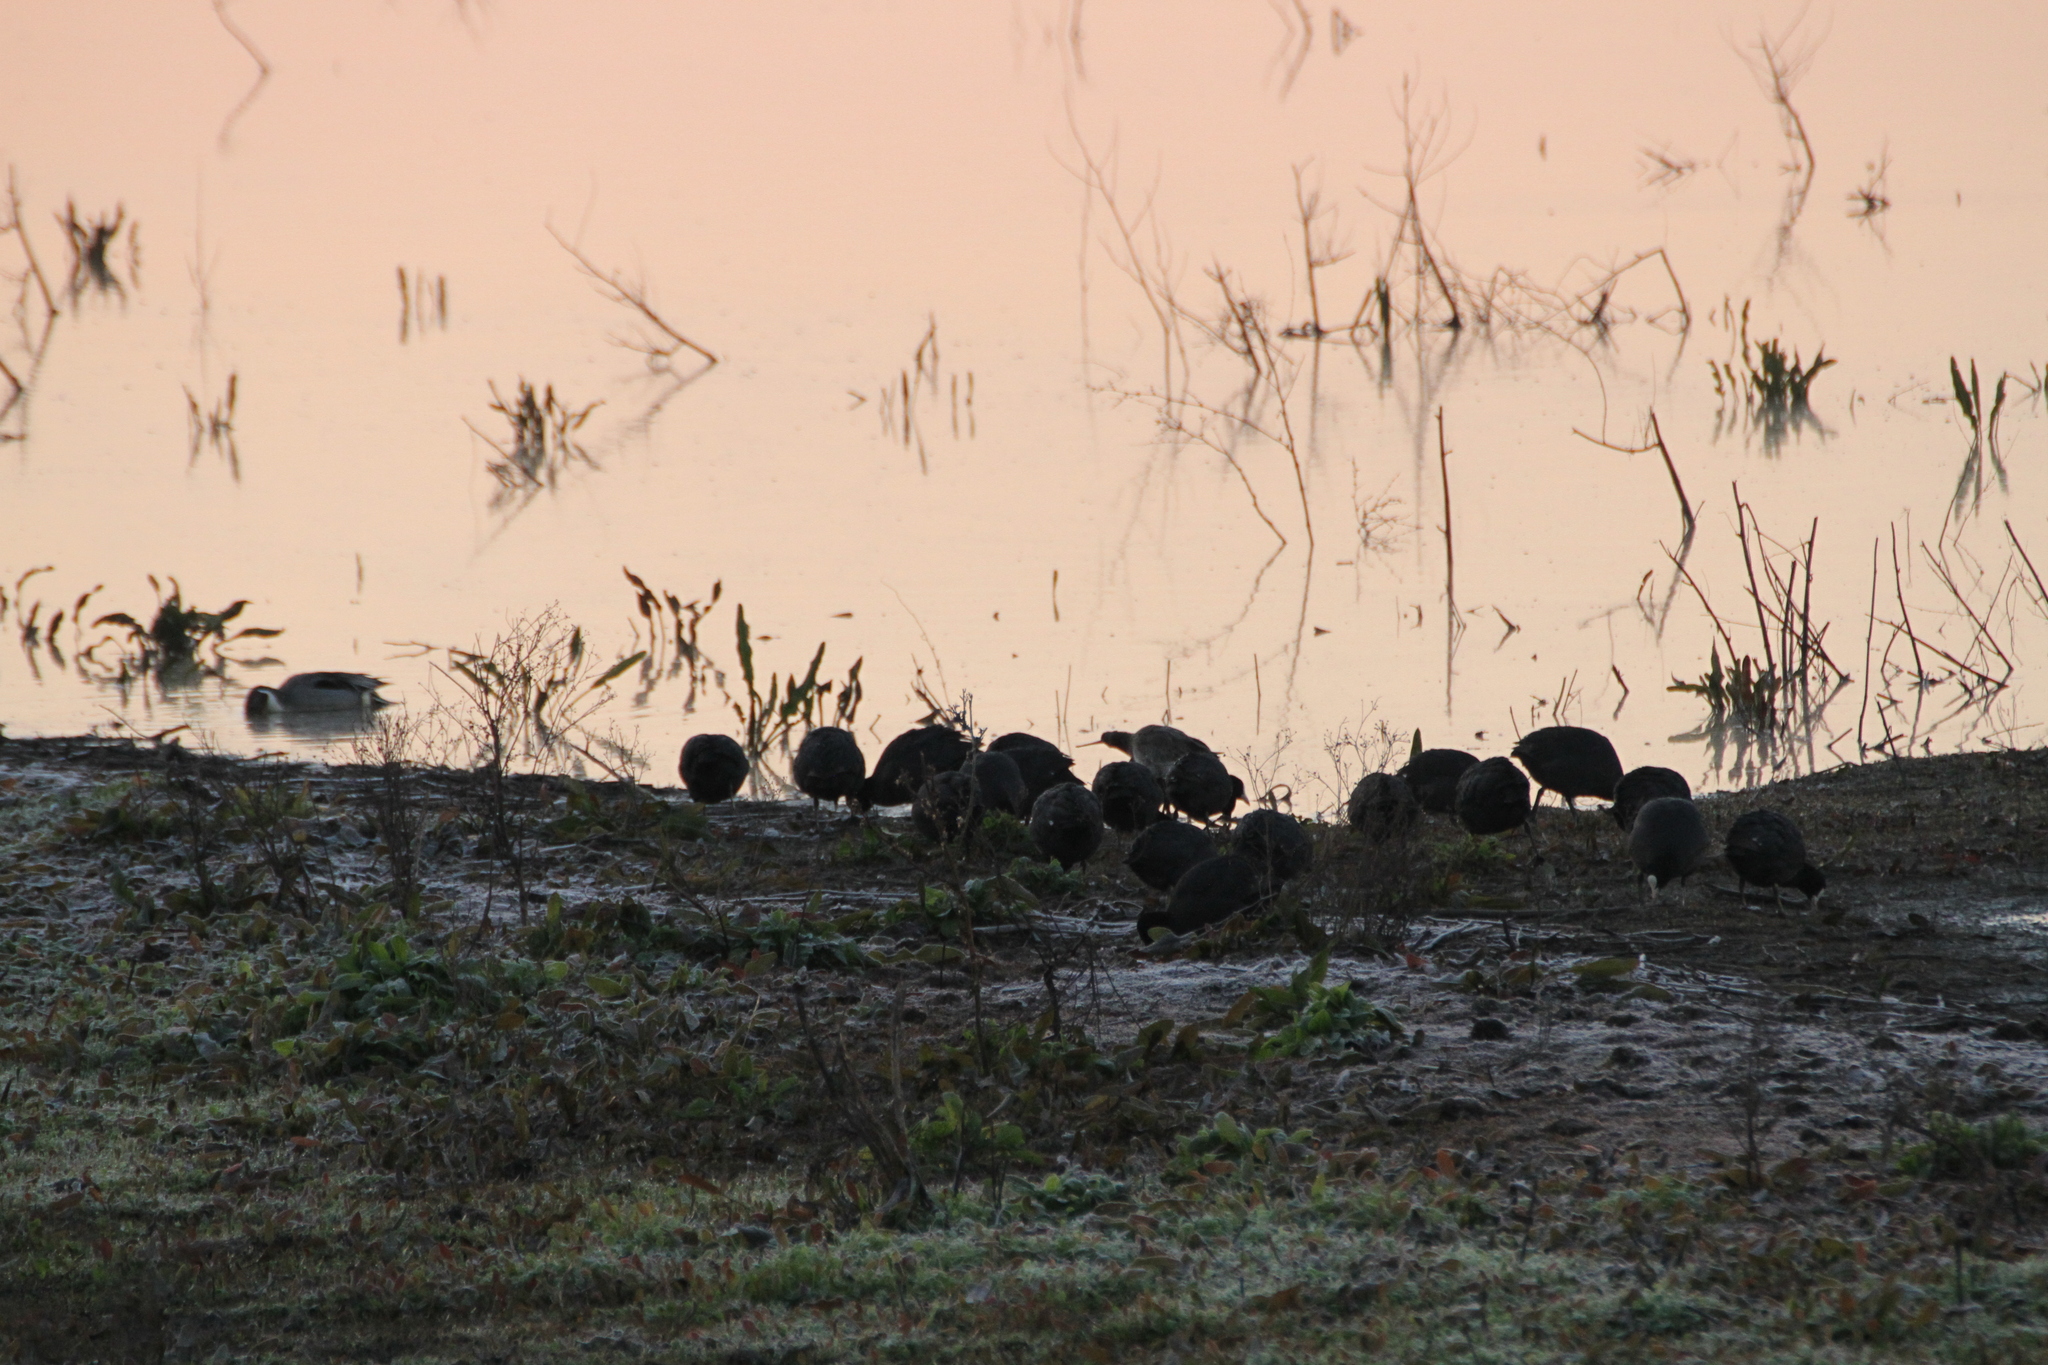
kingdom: Animalia
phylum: Chordata
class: Aves
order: Gruiformes
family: Rallidae
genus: Fulica
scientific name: Fulica atra
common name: Eurasian coot
